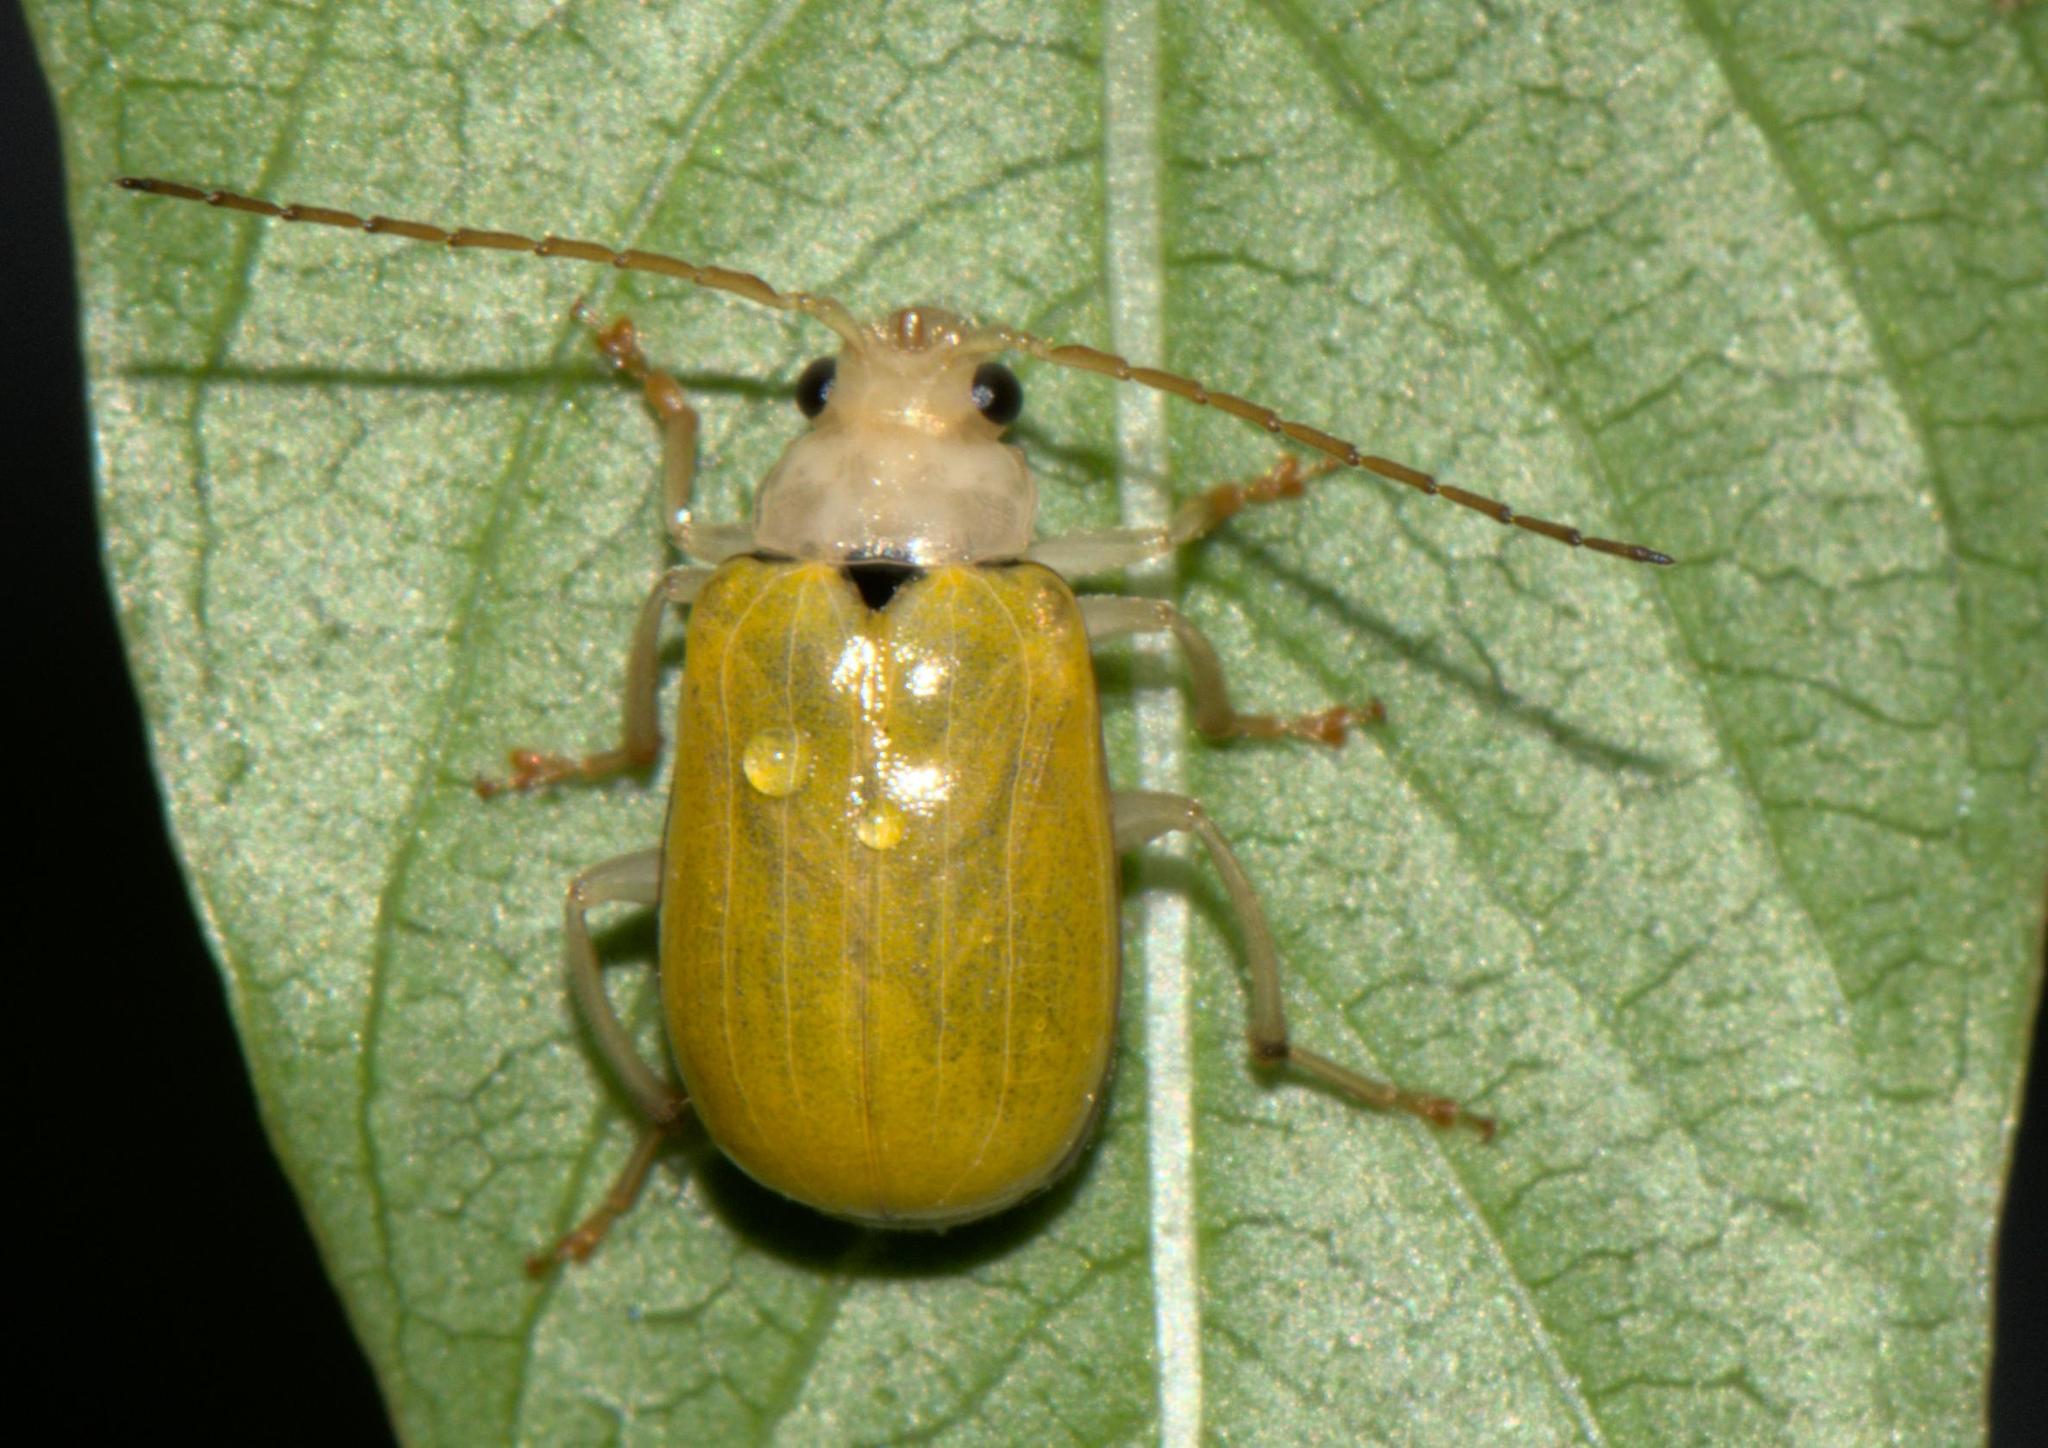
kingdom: Animalia
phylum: Arthropoda
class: Insecta
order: Coleoptera
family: Chrysomelidae
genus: Macrima
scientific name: Macrima
